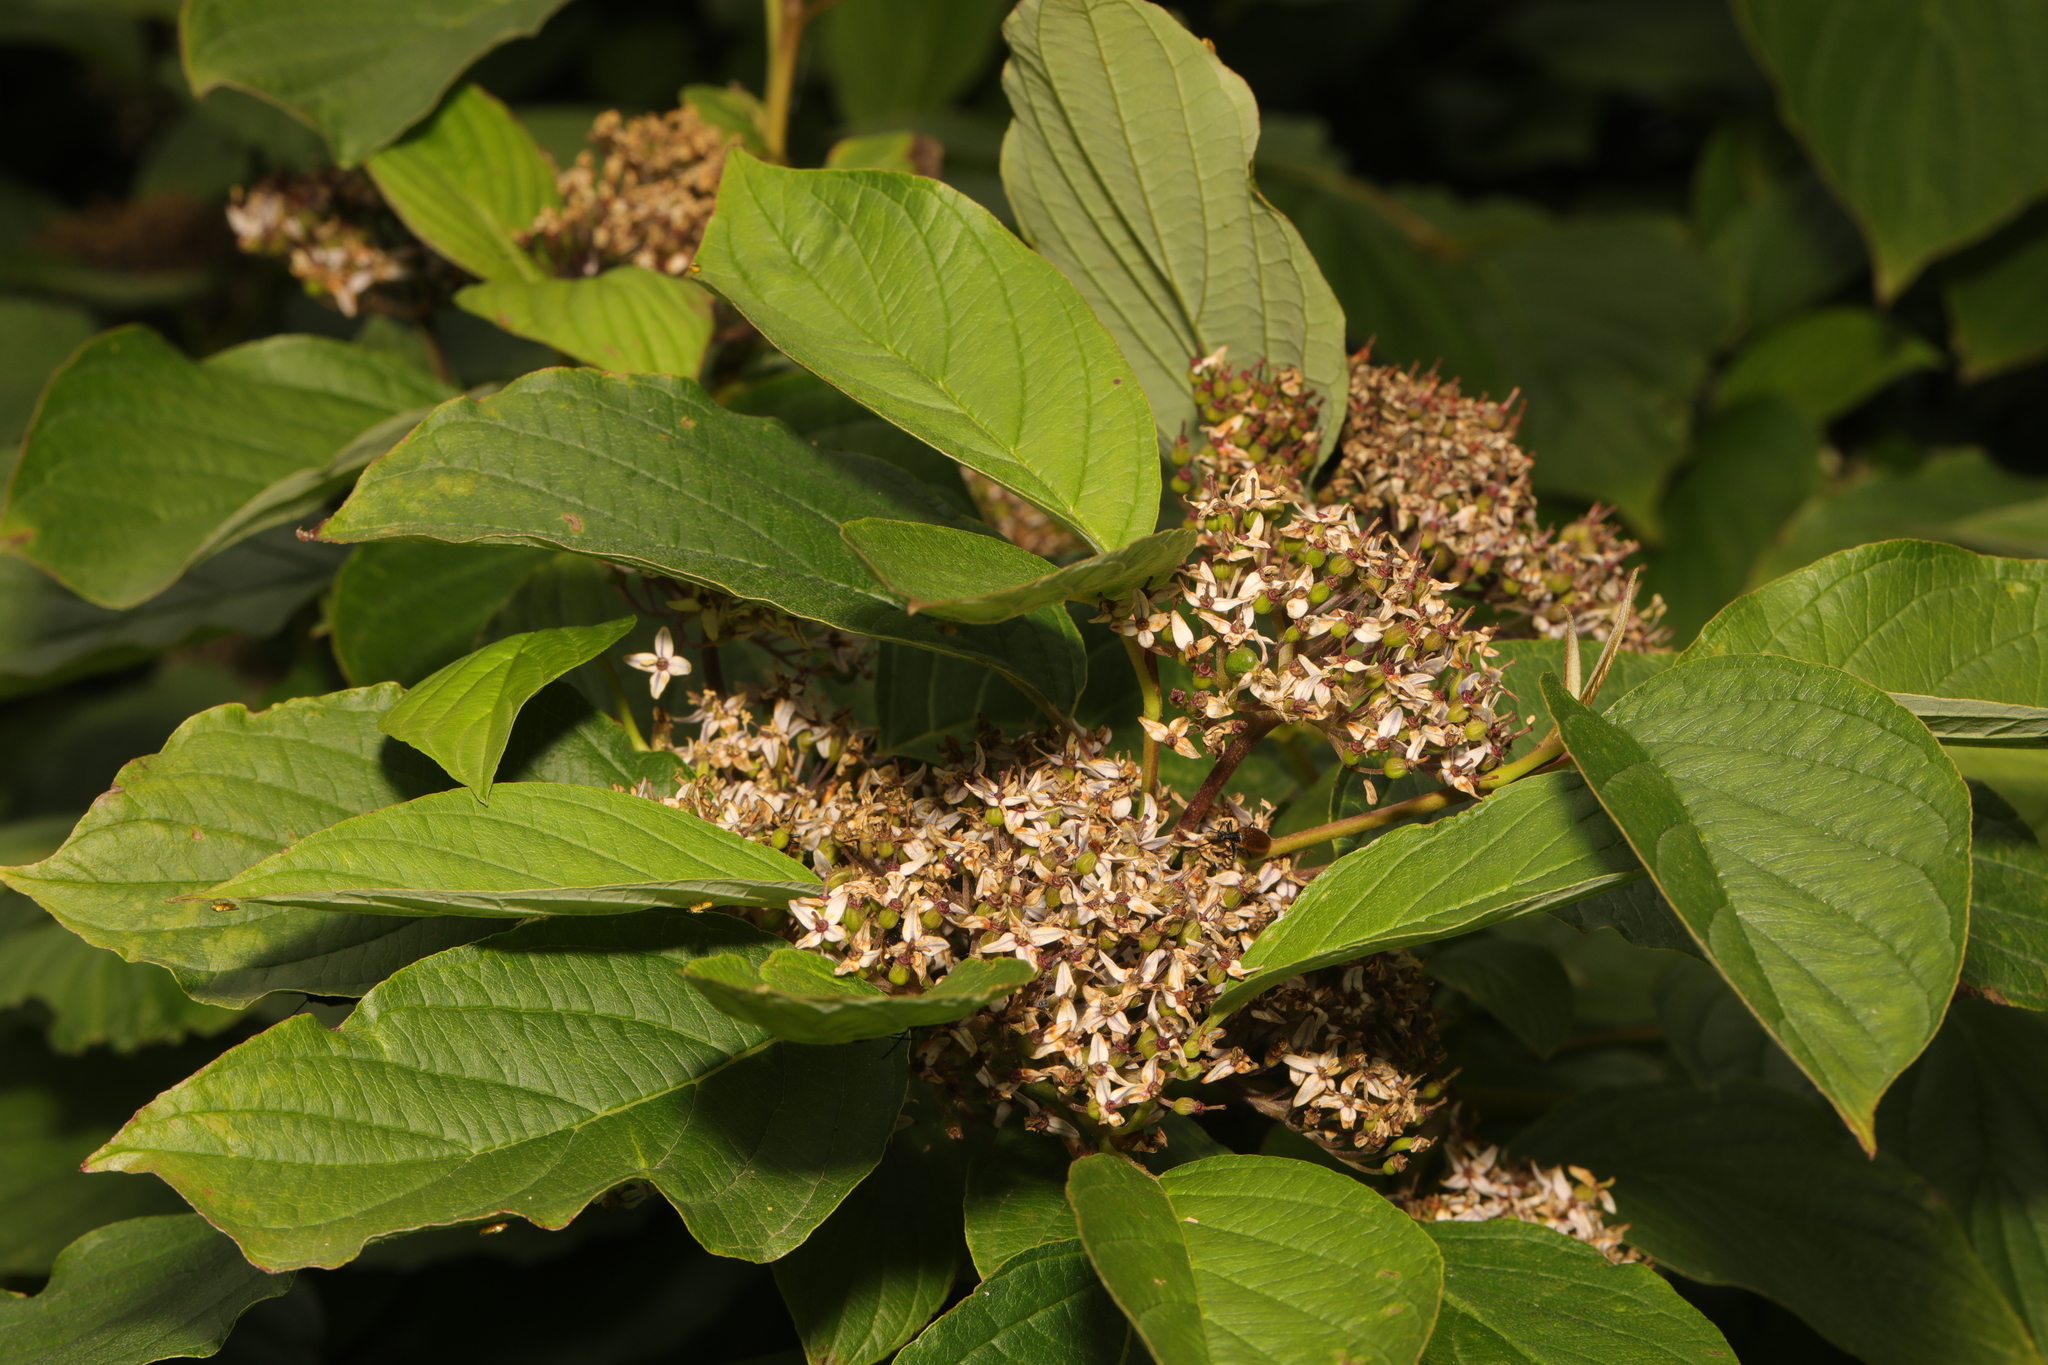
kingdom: Plantae
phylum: Tracheophyta
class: Magnoliopsida
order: Cornales
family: Cornaceae
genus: Cornus
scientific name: Cornus sericea
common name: Red-osier dogwood
